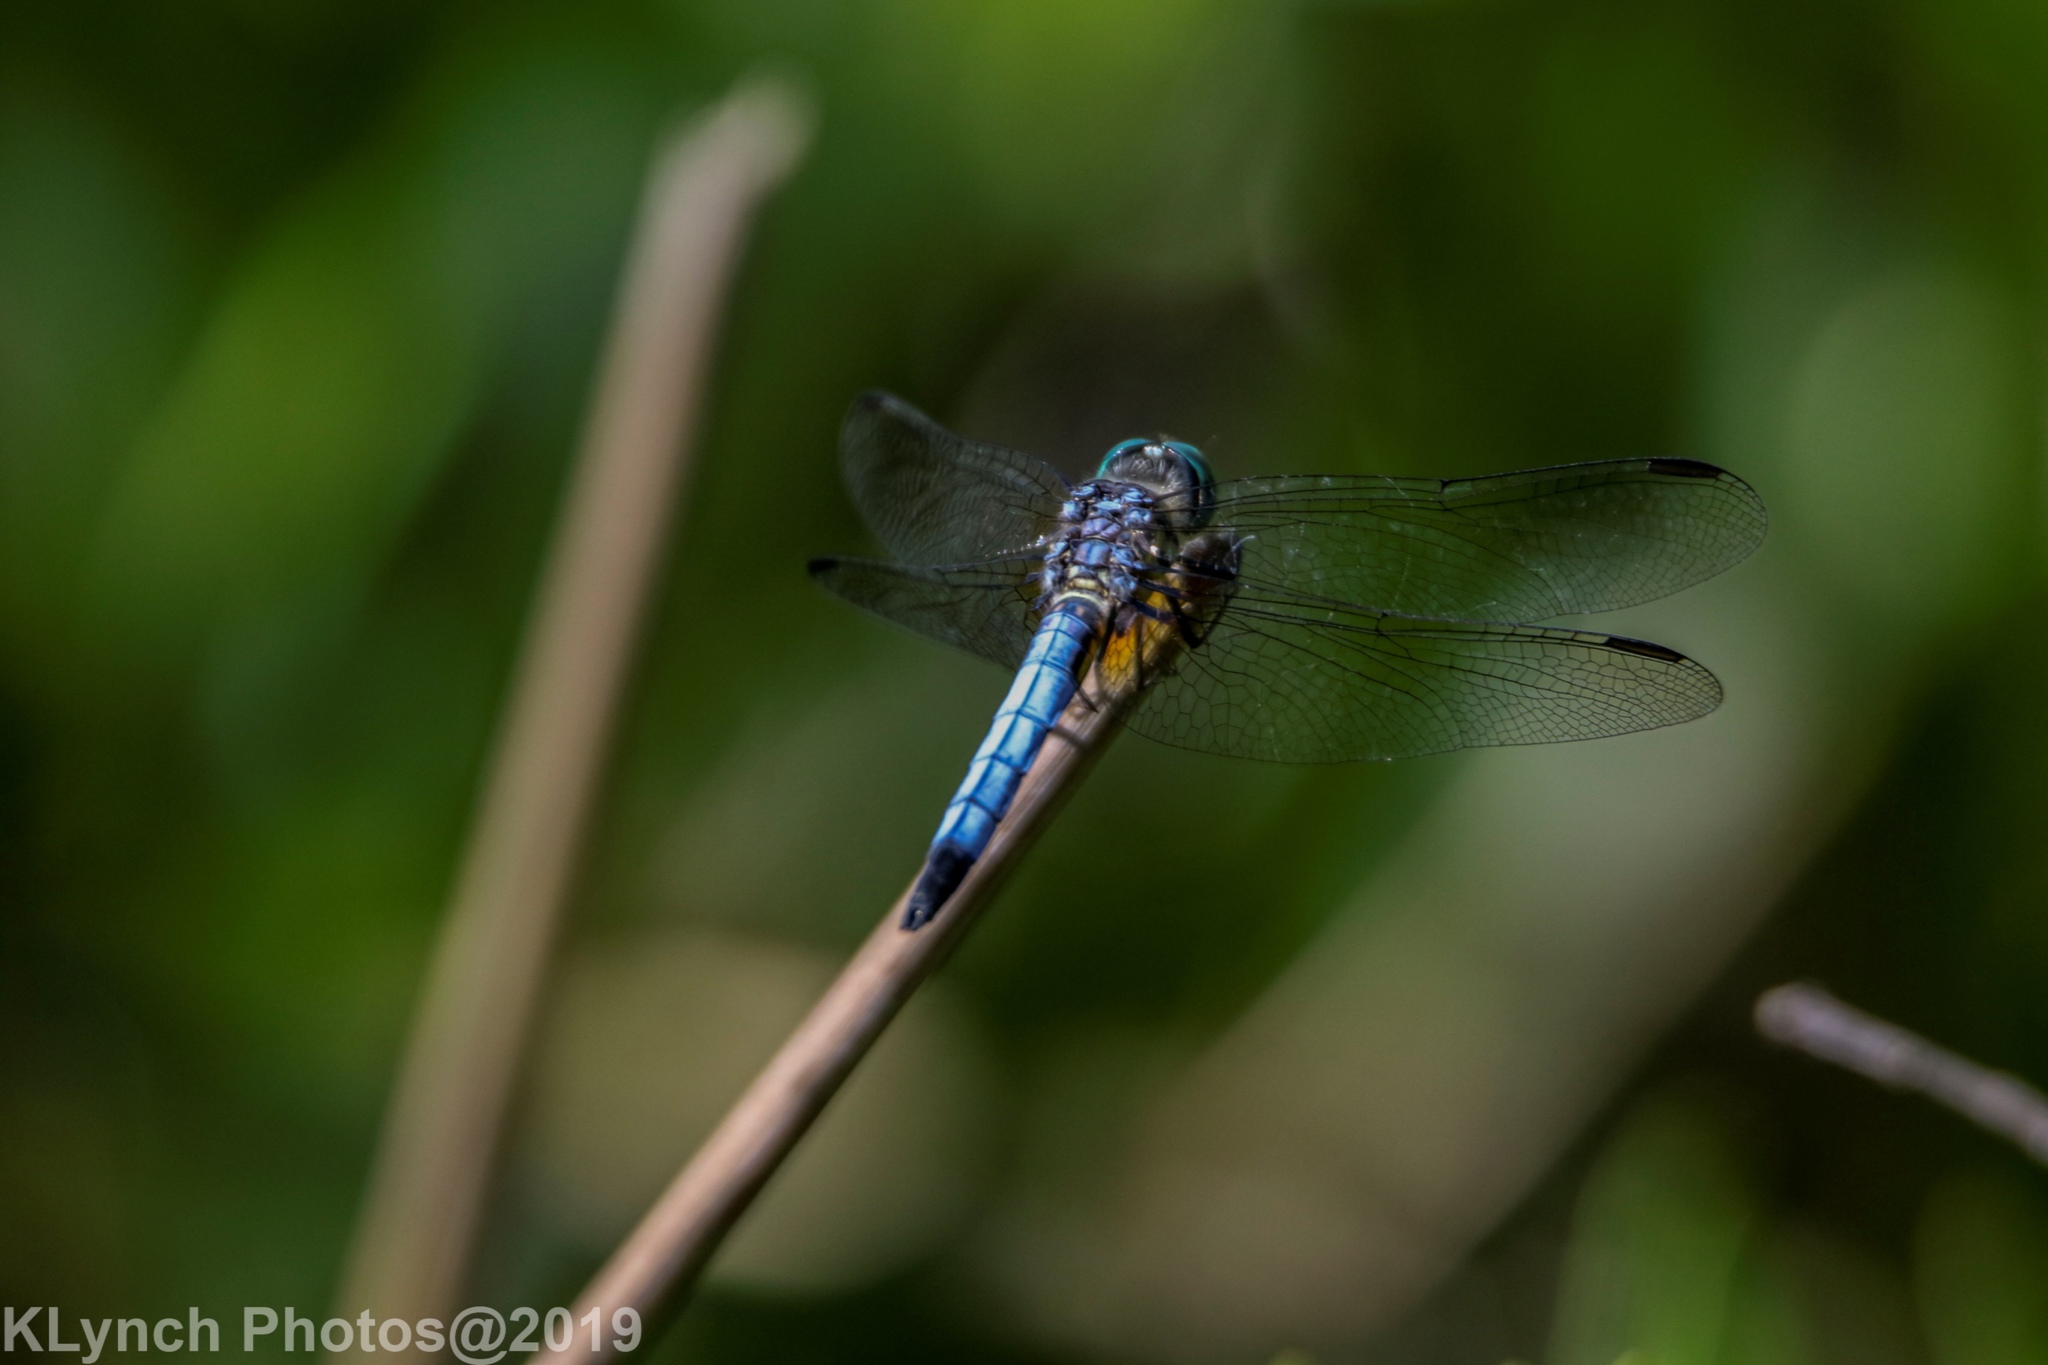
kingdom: Animalia
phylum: Arthropoda
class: Insecta
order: Odonata
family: Libellulidae
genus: Pachydiplax
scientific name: Pachydiplax longipennis
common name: Blue dasher
